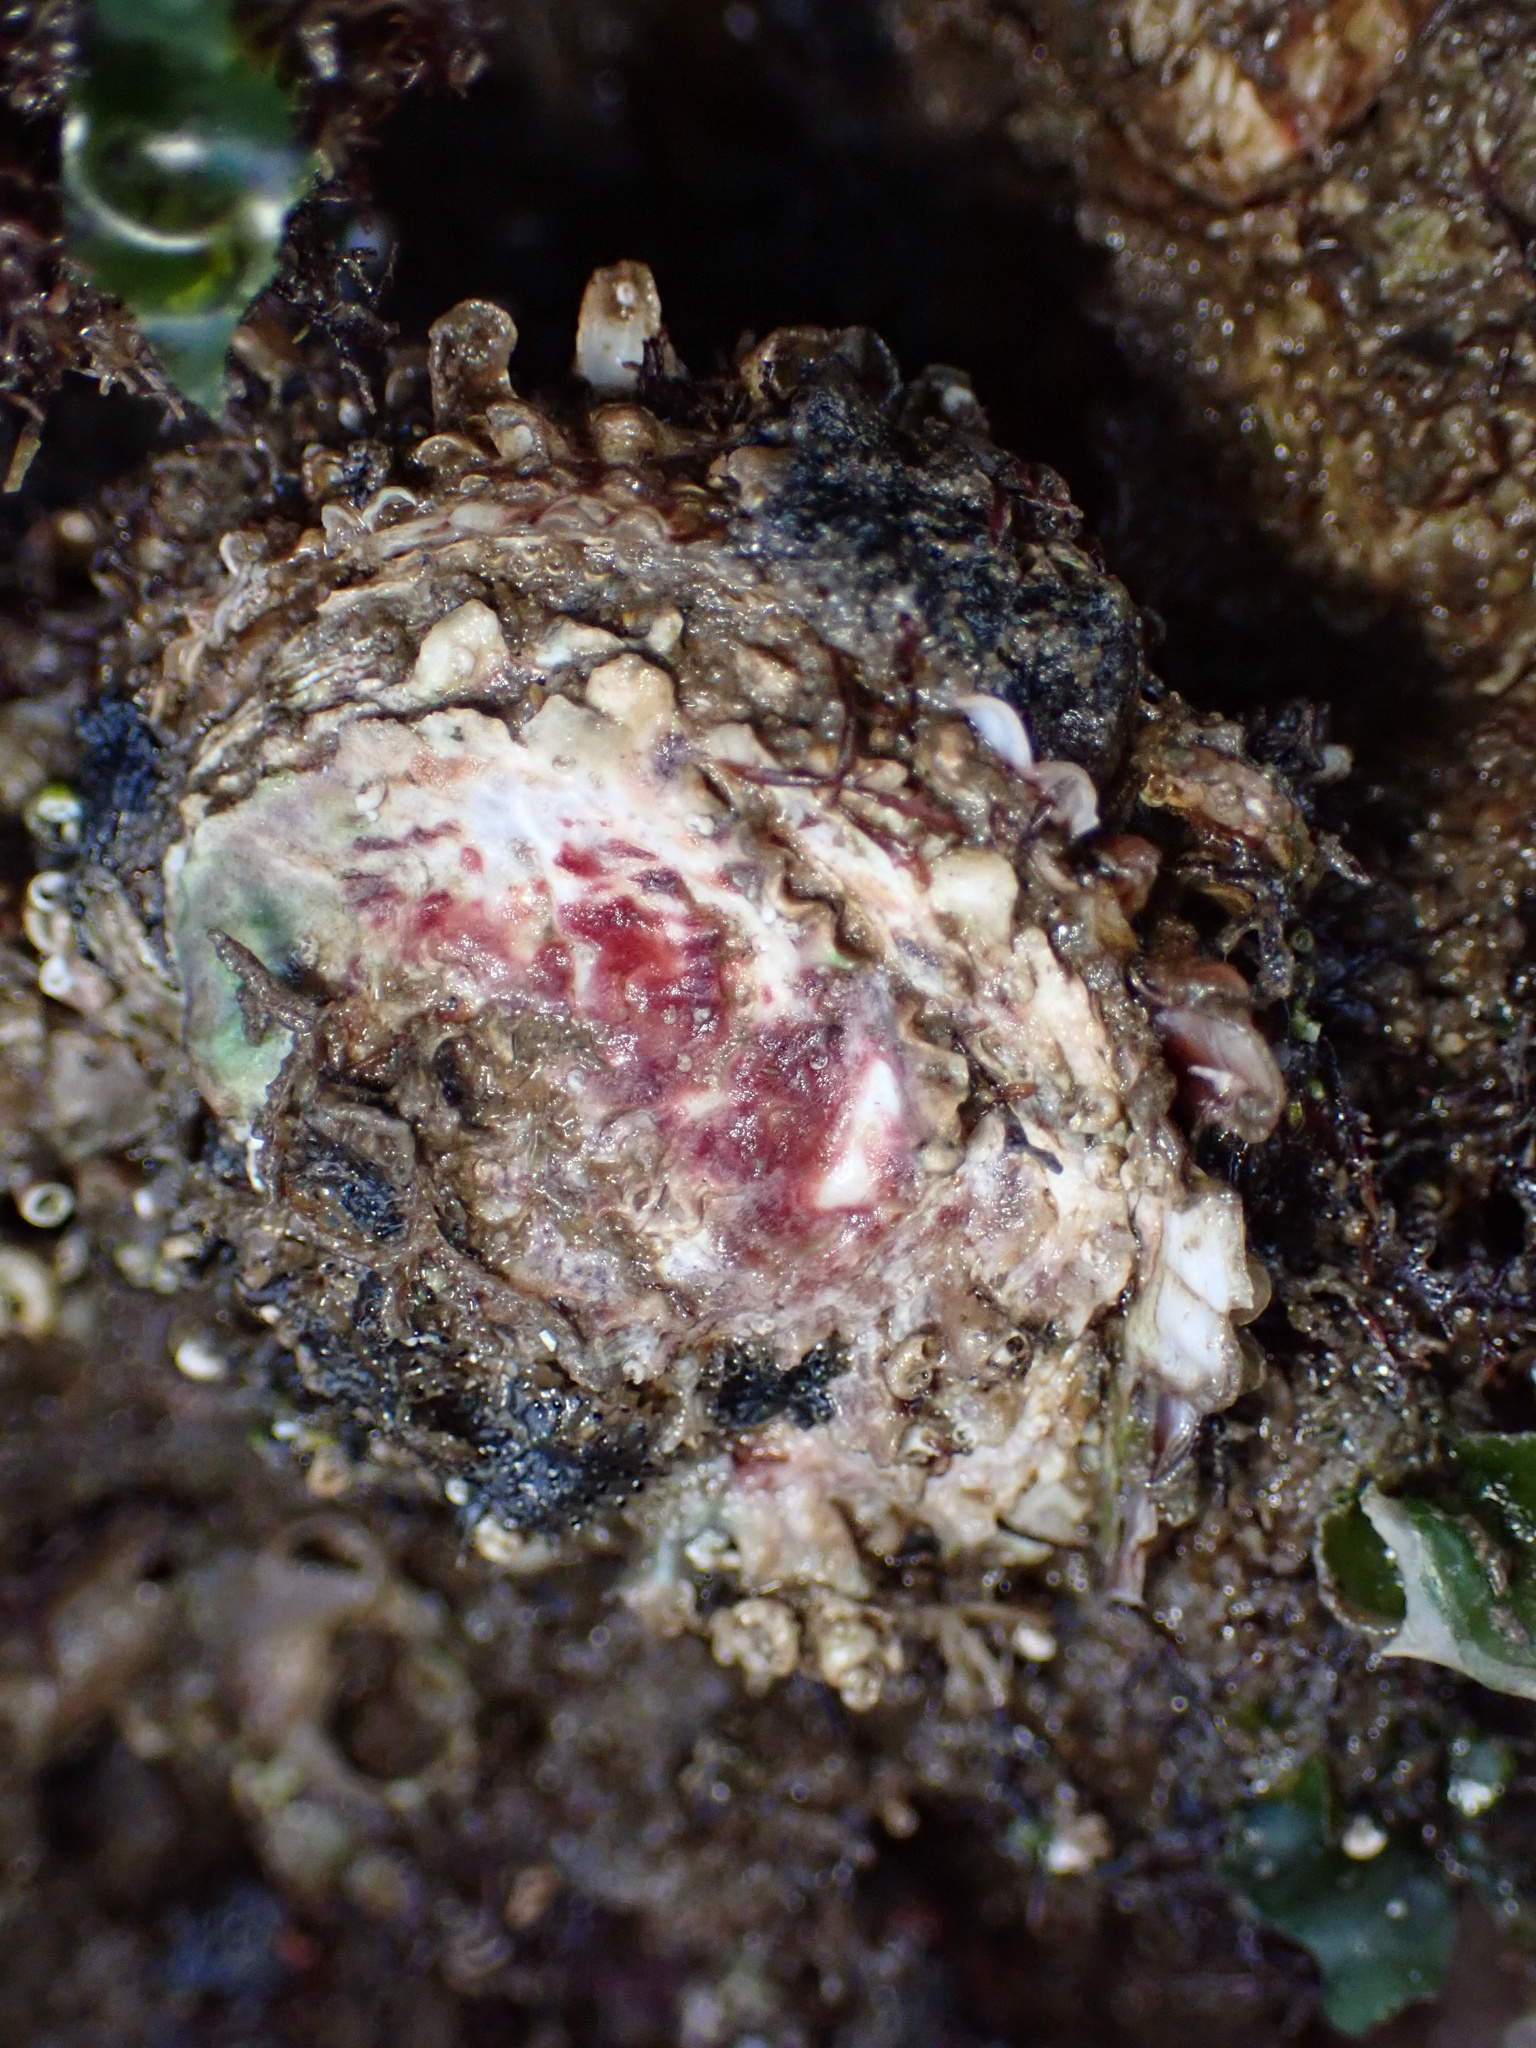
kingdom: Animalia
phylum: Mollusca
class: Bivalvia
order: Venerida
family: Chamidae
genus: Pseudochama
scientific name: Pseudochama exogyra
